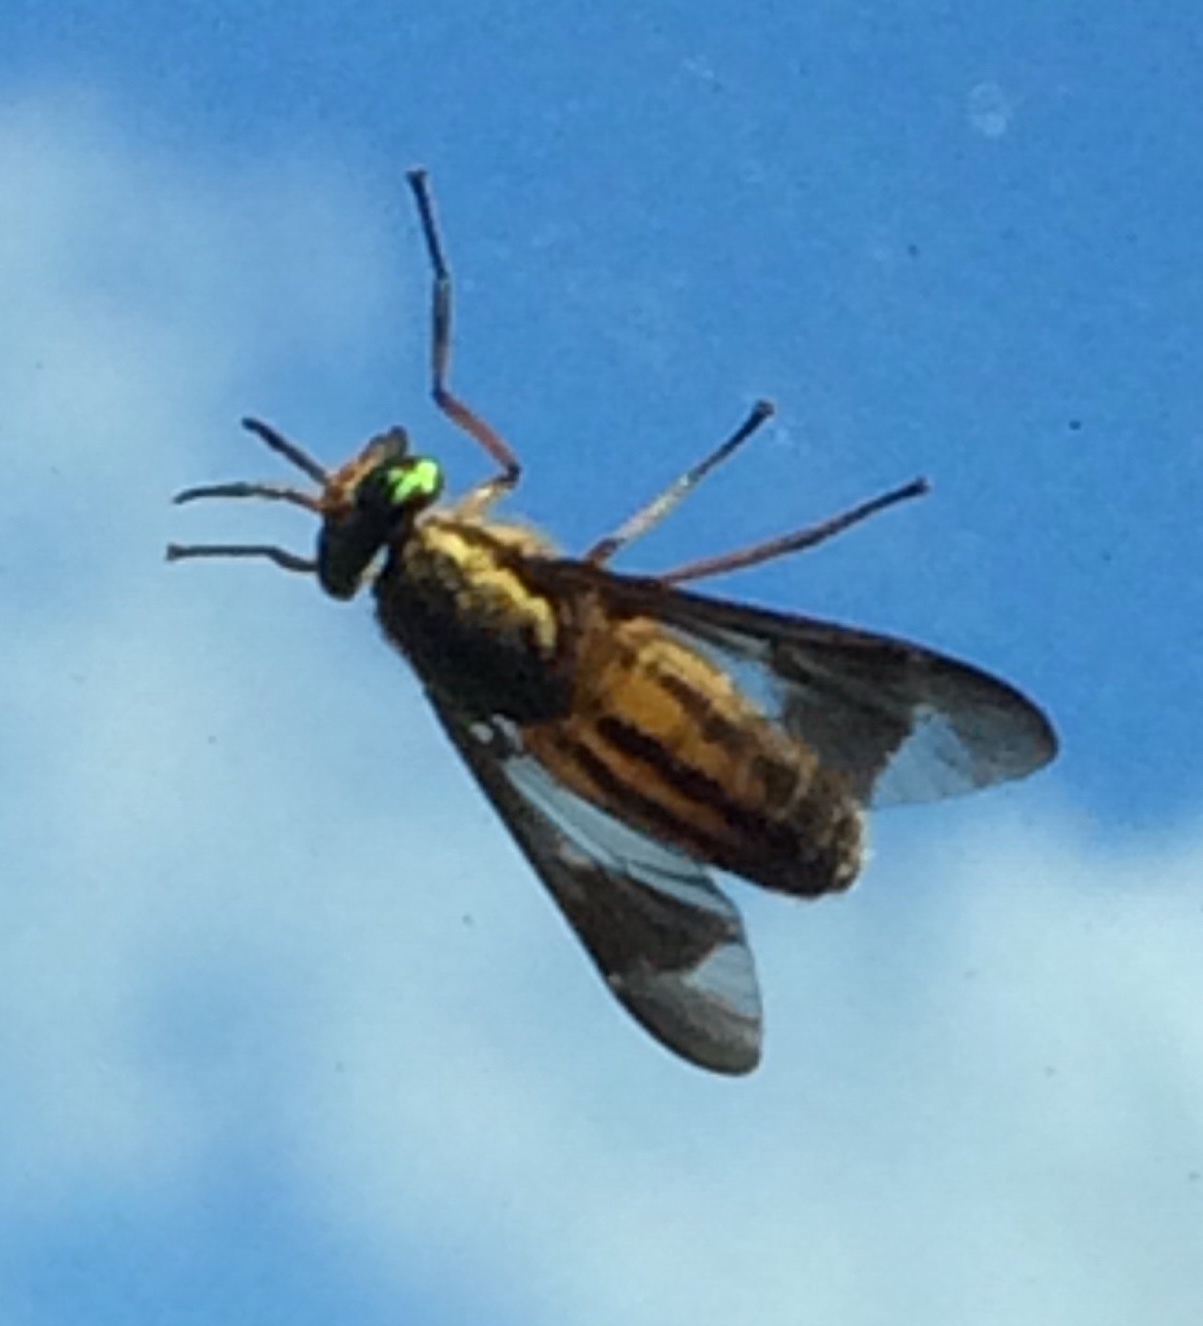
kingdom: Animalia
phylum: Arthropoda
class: Insecta
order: Diptera
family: Tabanidae
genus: Chrysops
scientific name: Chrysops vittatus
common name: Striped deer fly
